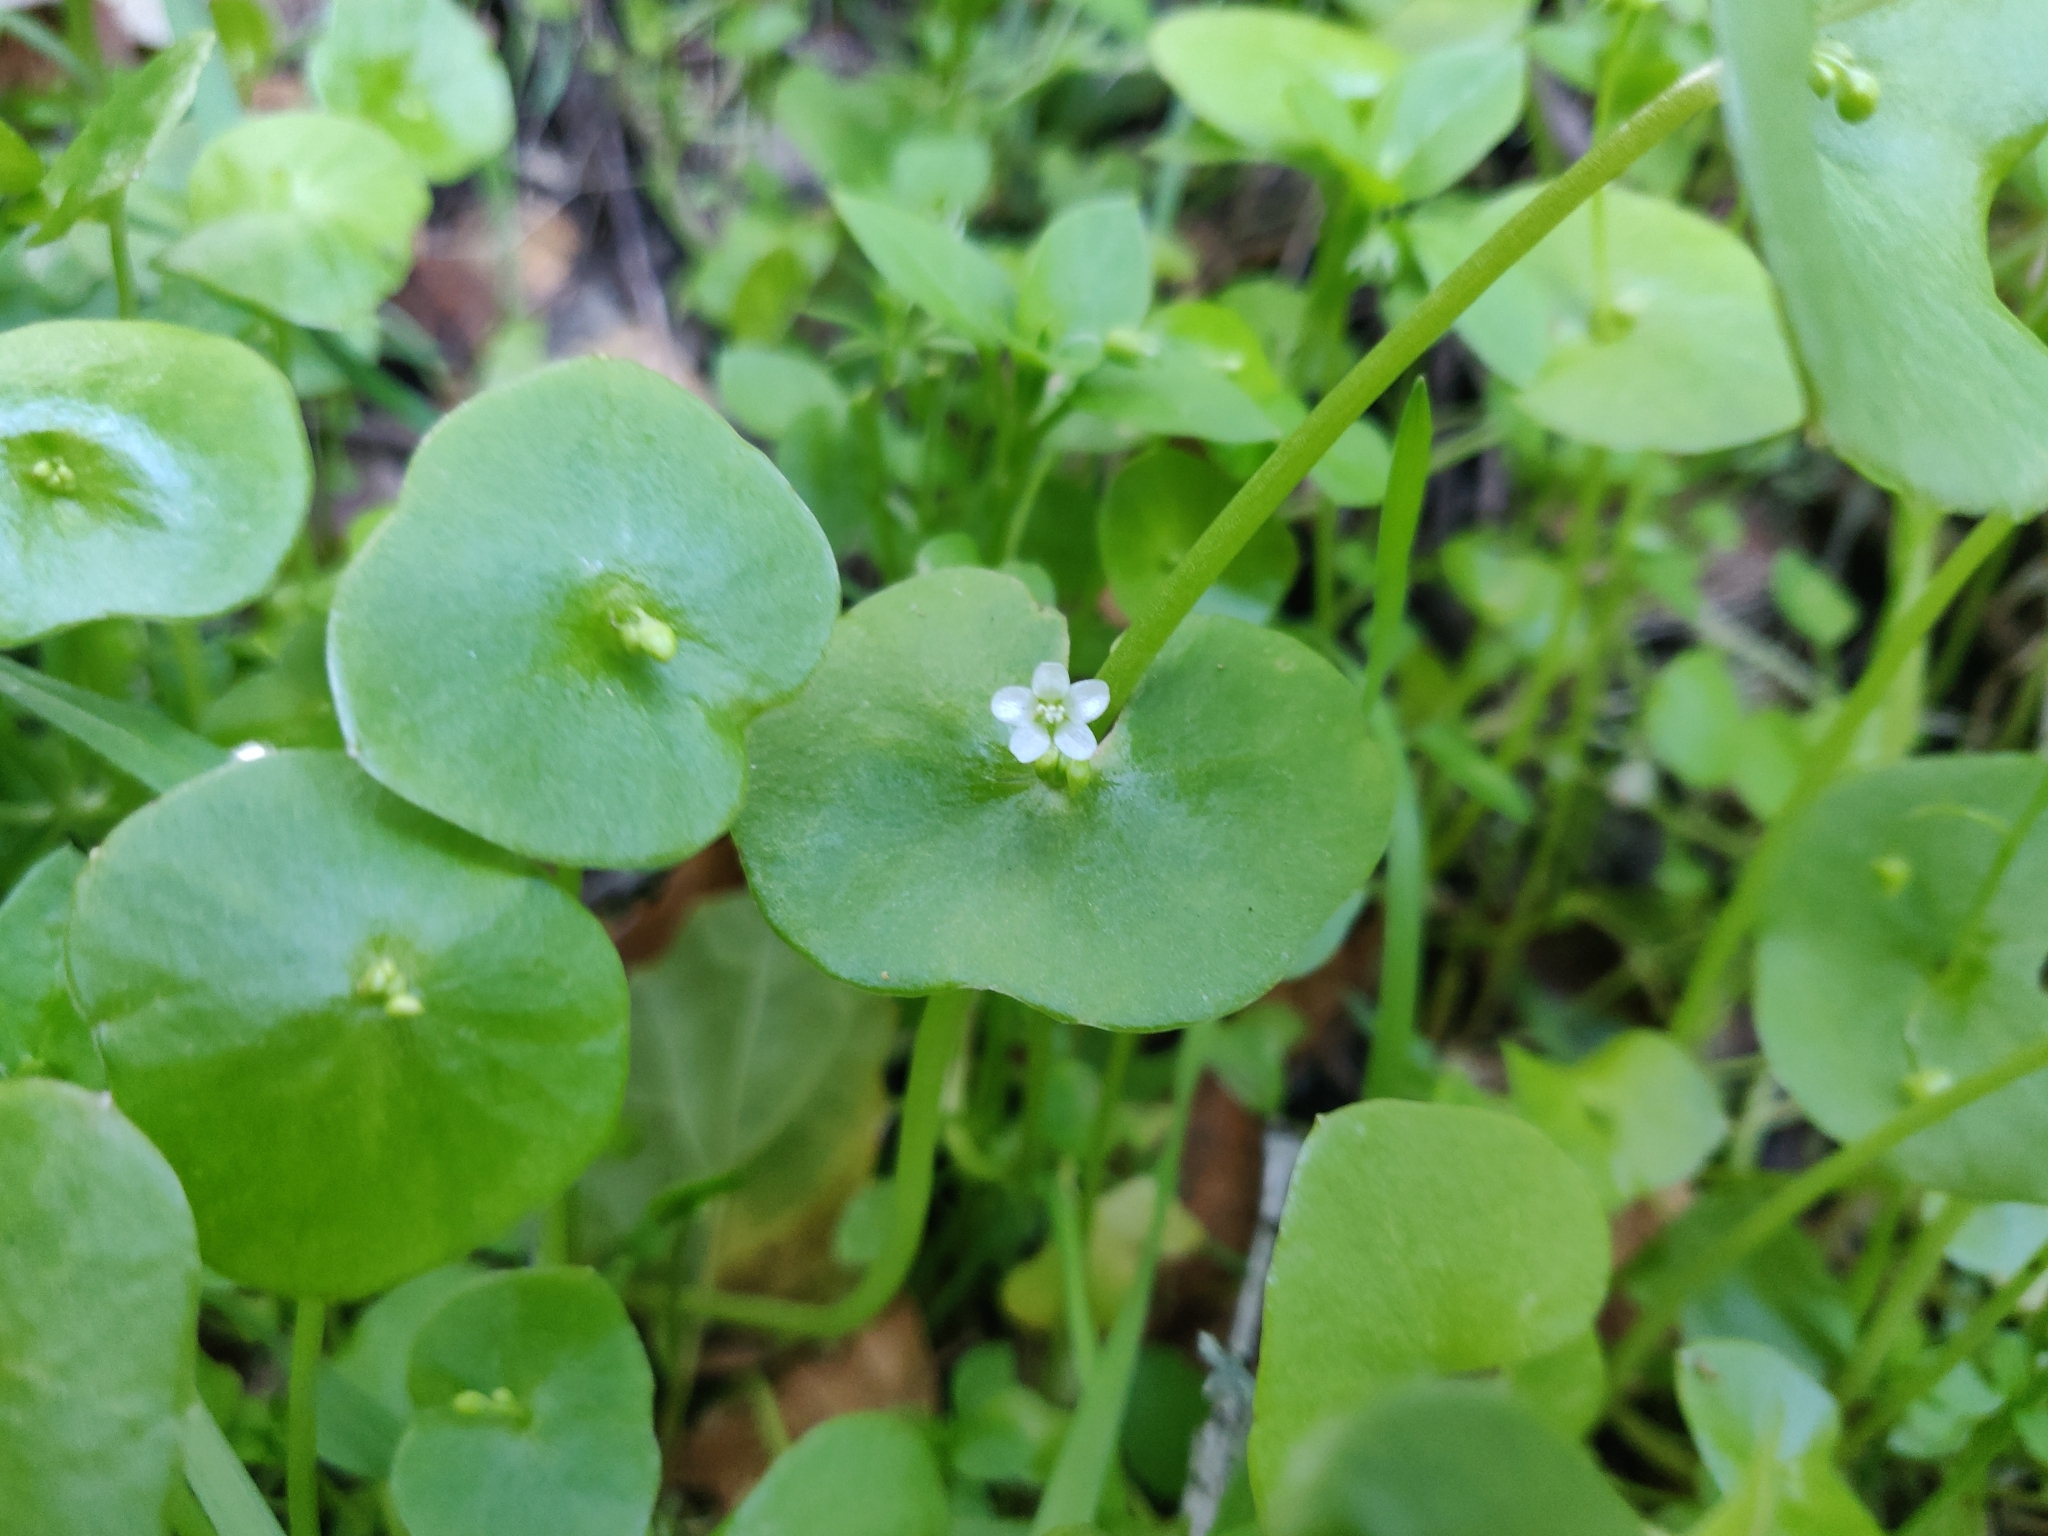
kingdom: Plantae
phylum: Tracheophyta
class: Magnoliopsida
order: Caryophyllales
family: Montiaceae
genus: Claytonia
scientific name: Claytonia perfoliata
